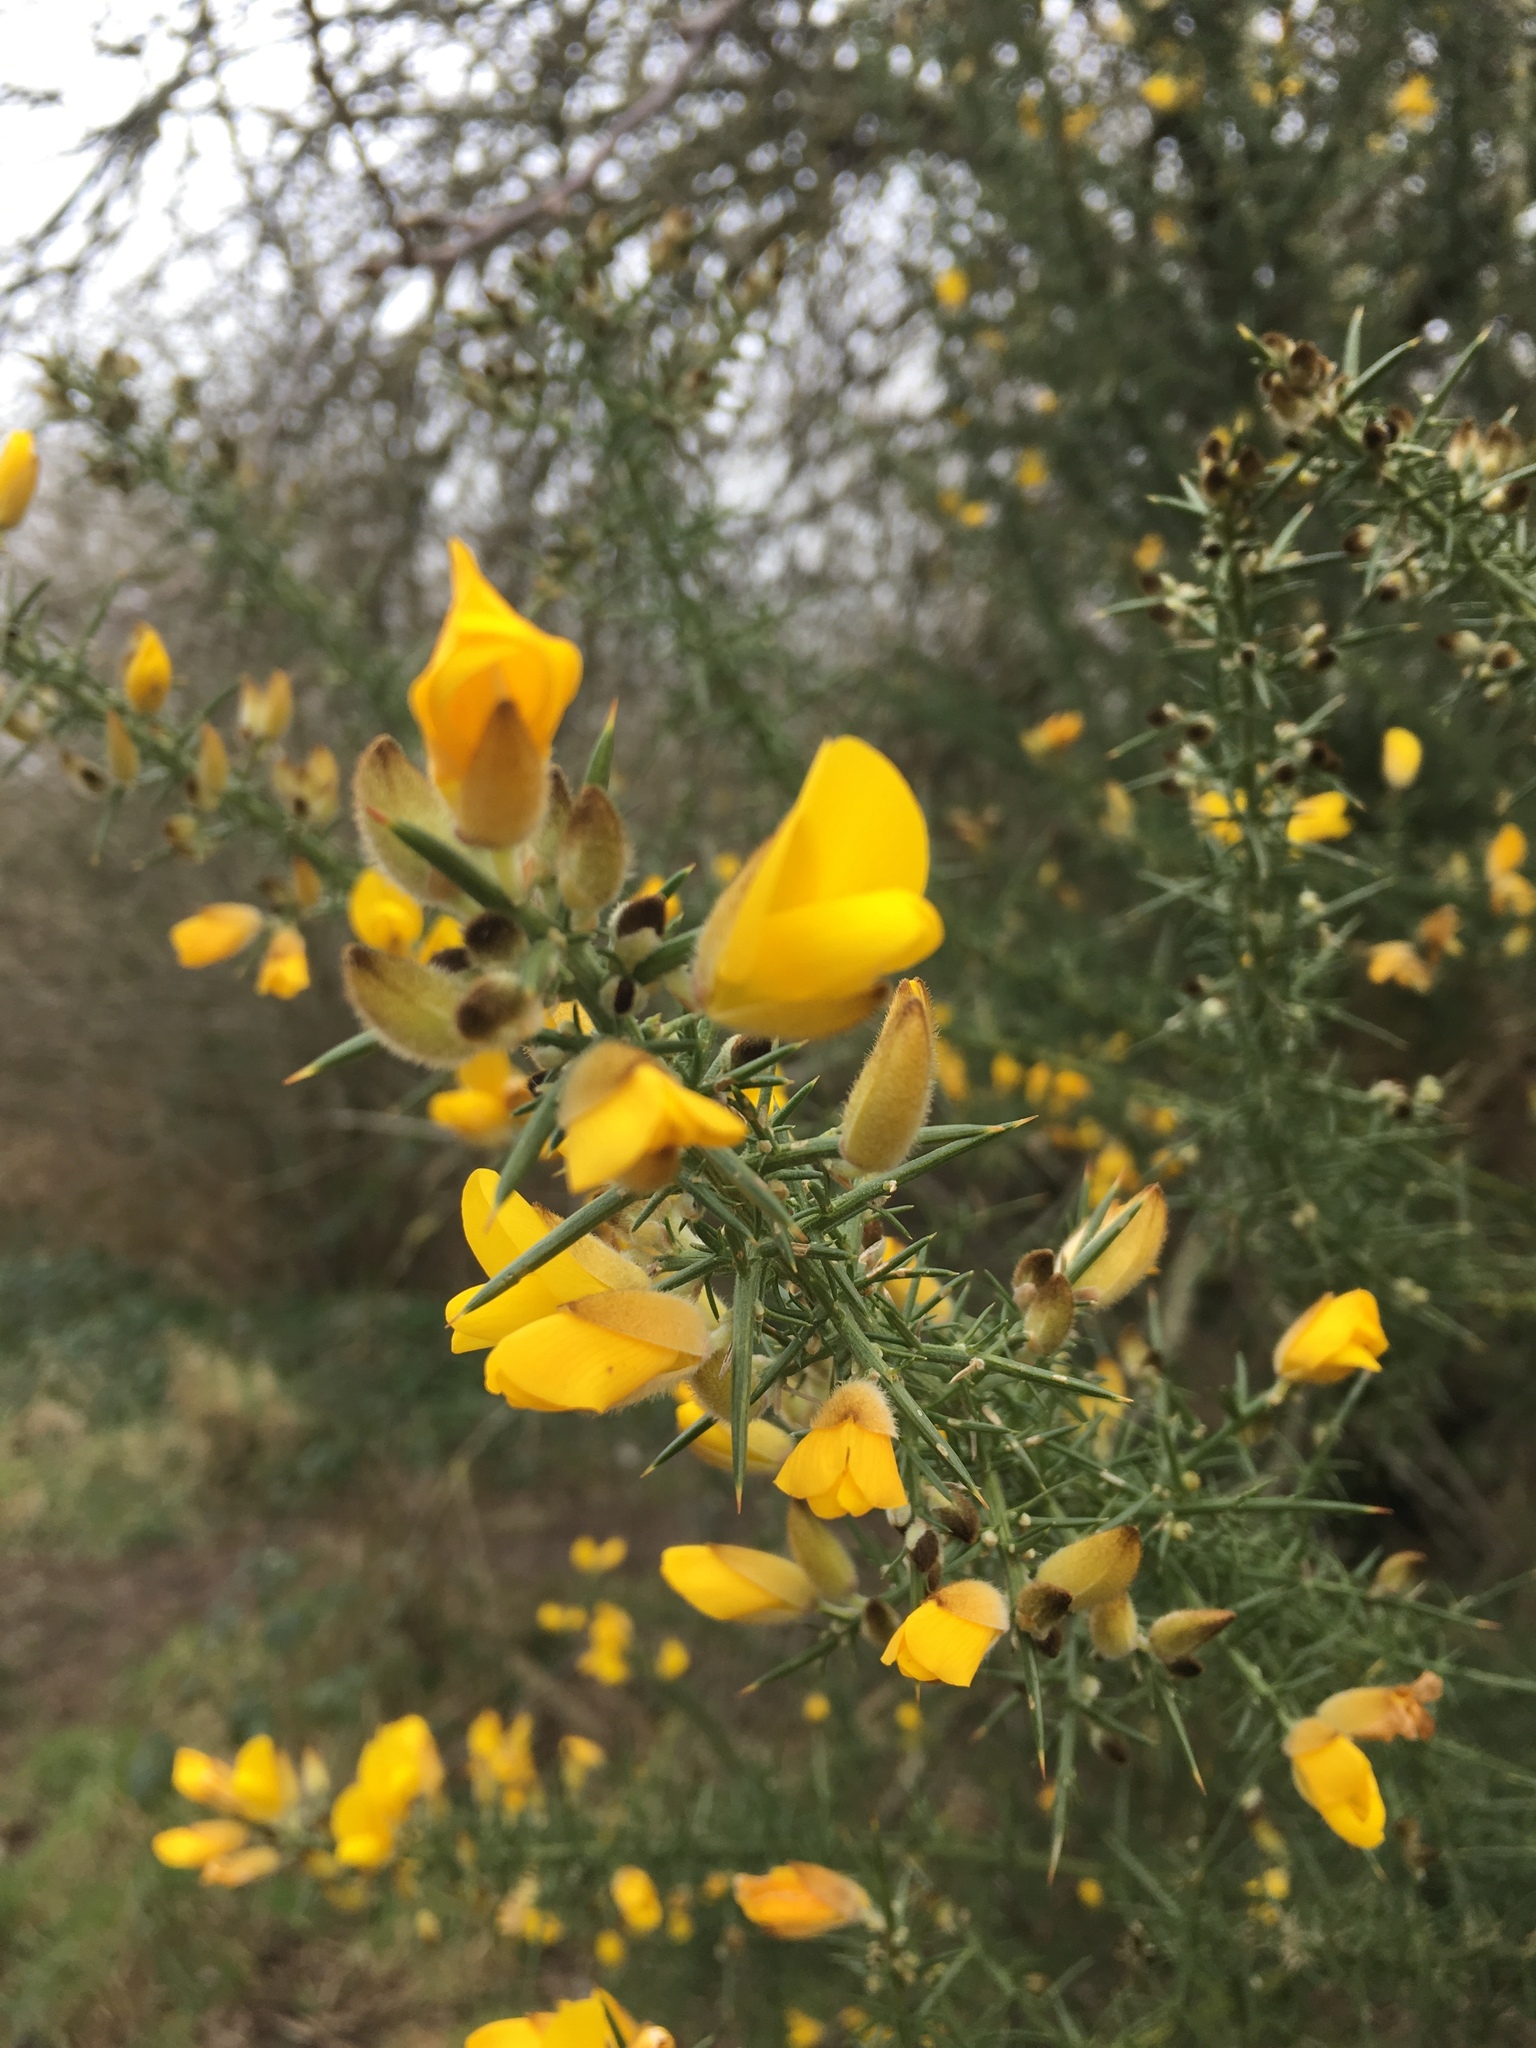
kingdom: Plantae
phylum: Tracheophyta
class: Magnoliopsida
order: Fabales
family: Fabaceae
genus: Ulex
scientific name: Ulex europaeus
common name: Common gorse
